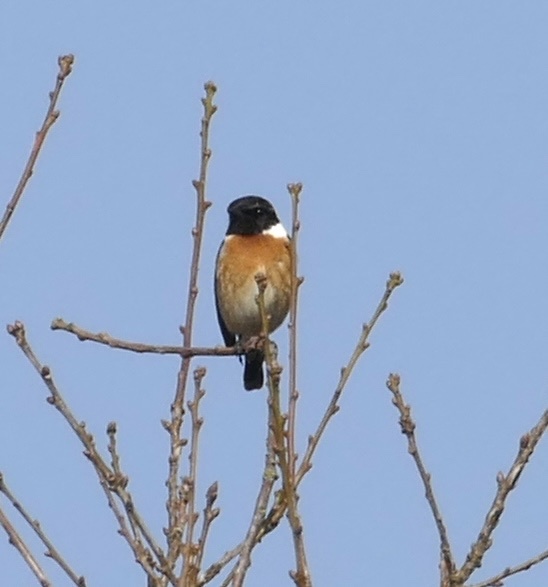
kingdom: Animalia
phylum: Chordata
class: Aves
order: Passeriformes
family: Muscicapidae
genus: Saxicola
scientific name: Saxicola rubicola
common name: European stonechat
